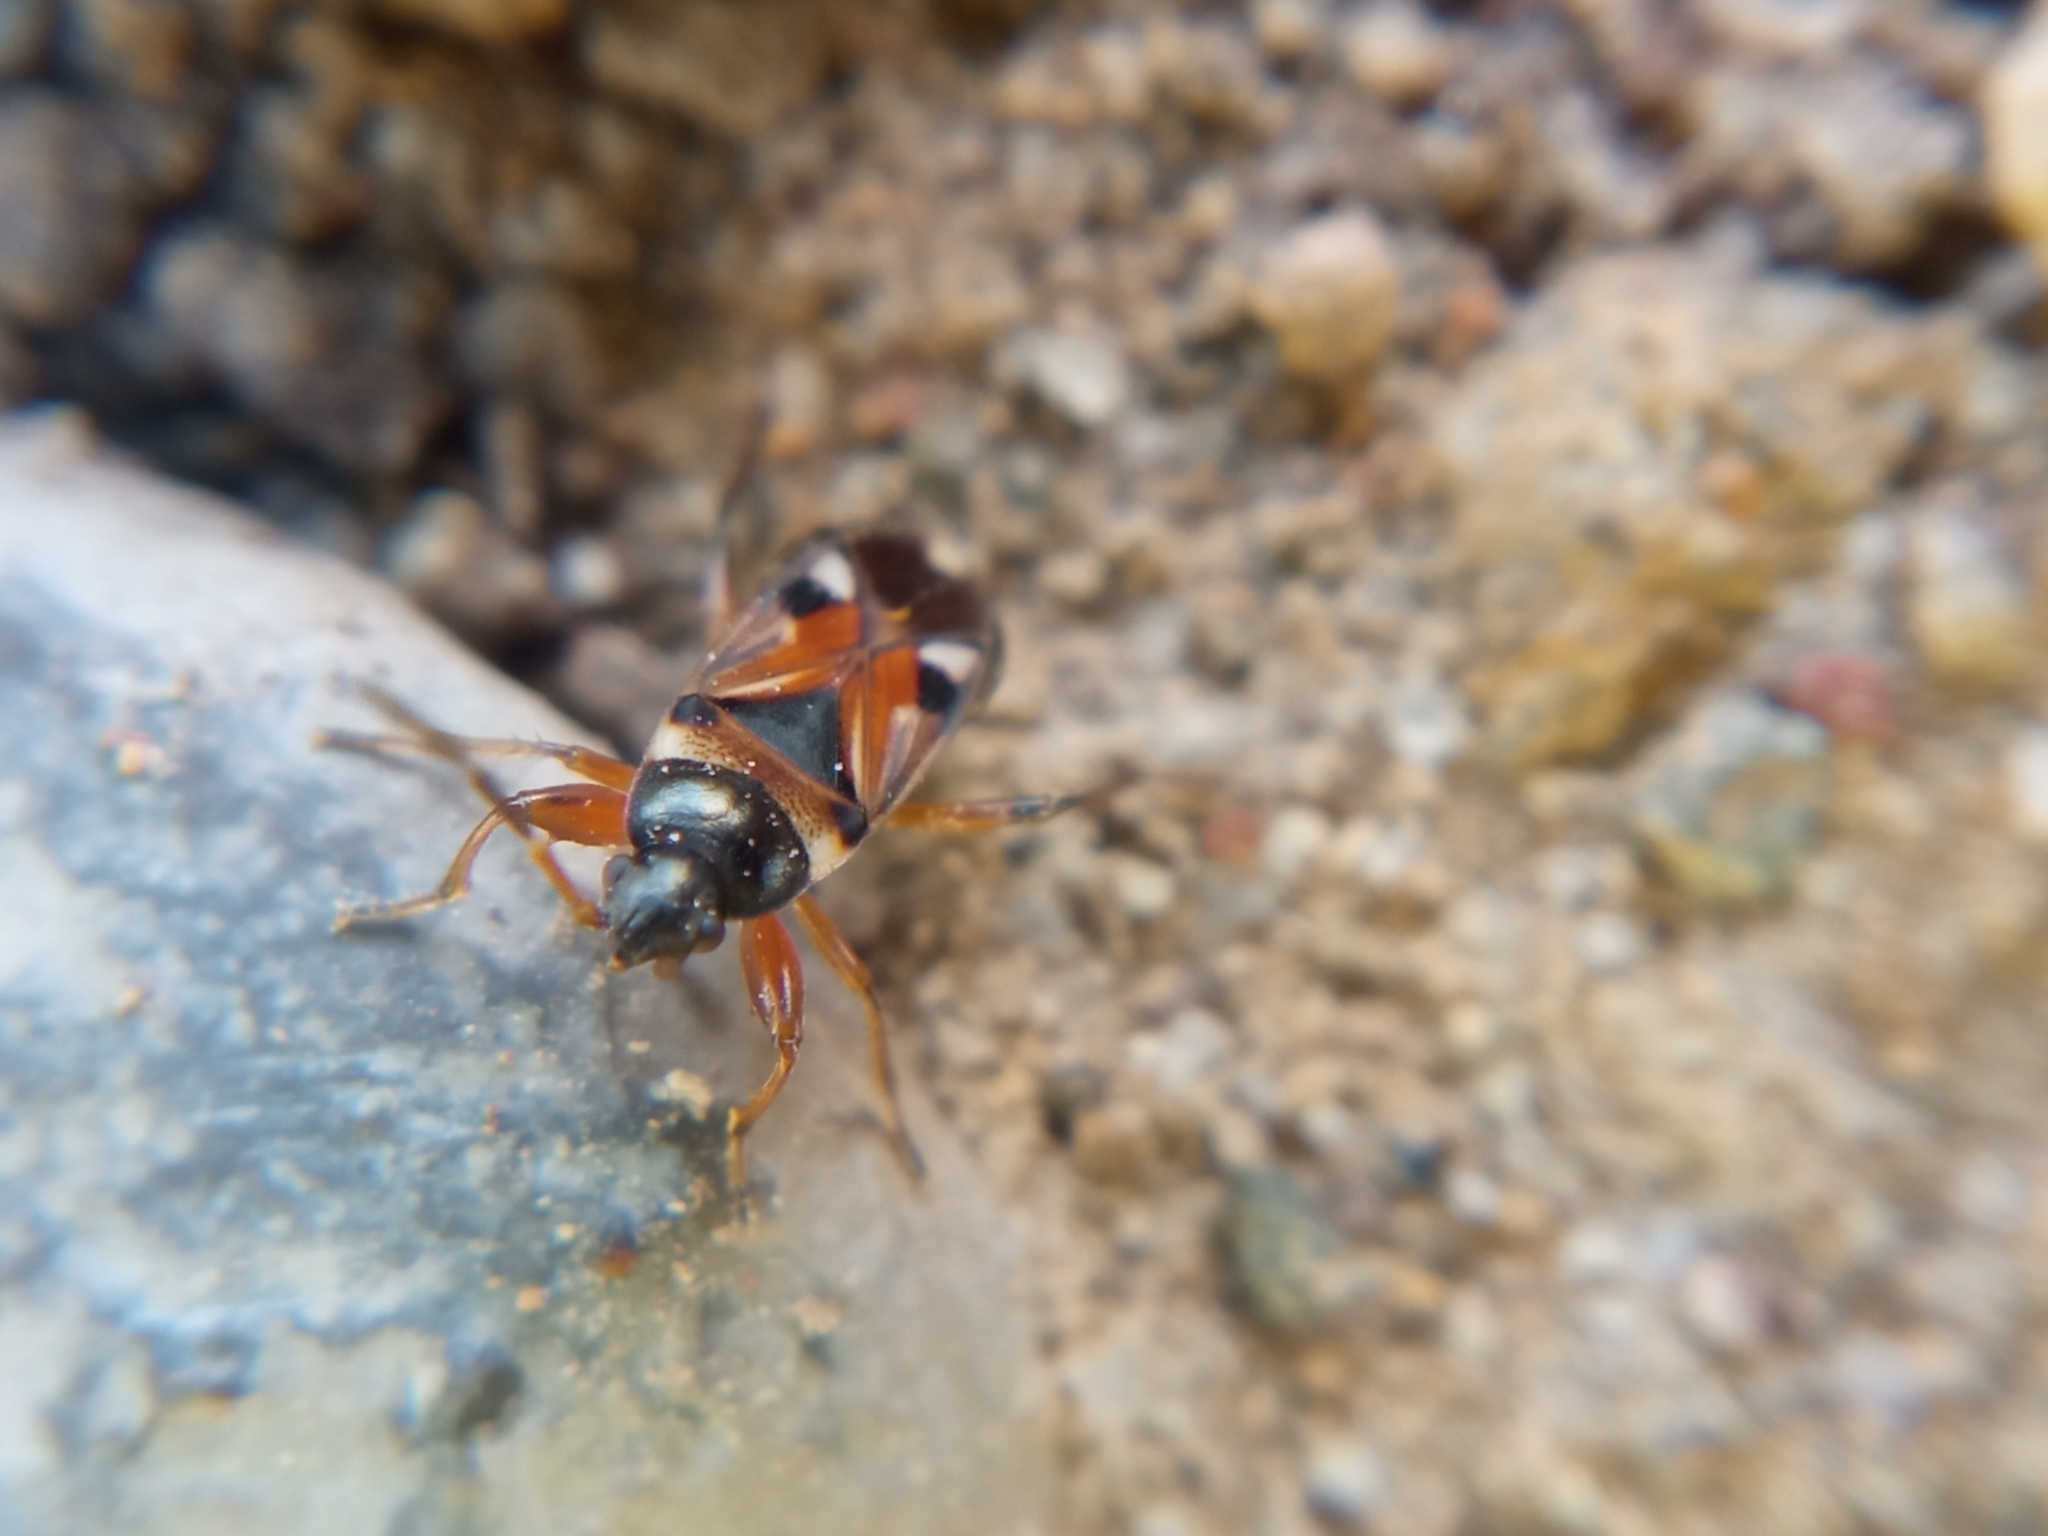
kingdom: Animalia
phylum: Arthropoda
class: Insecta
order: Hemiptera
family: Rhyparochromidae
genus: Raglius
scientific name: Raglius alboacuminatus
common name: Dirt-colored seed bug
